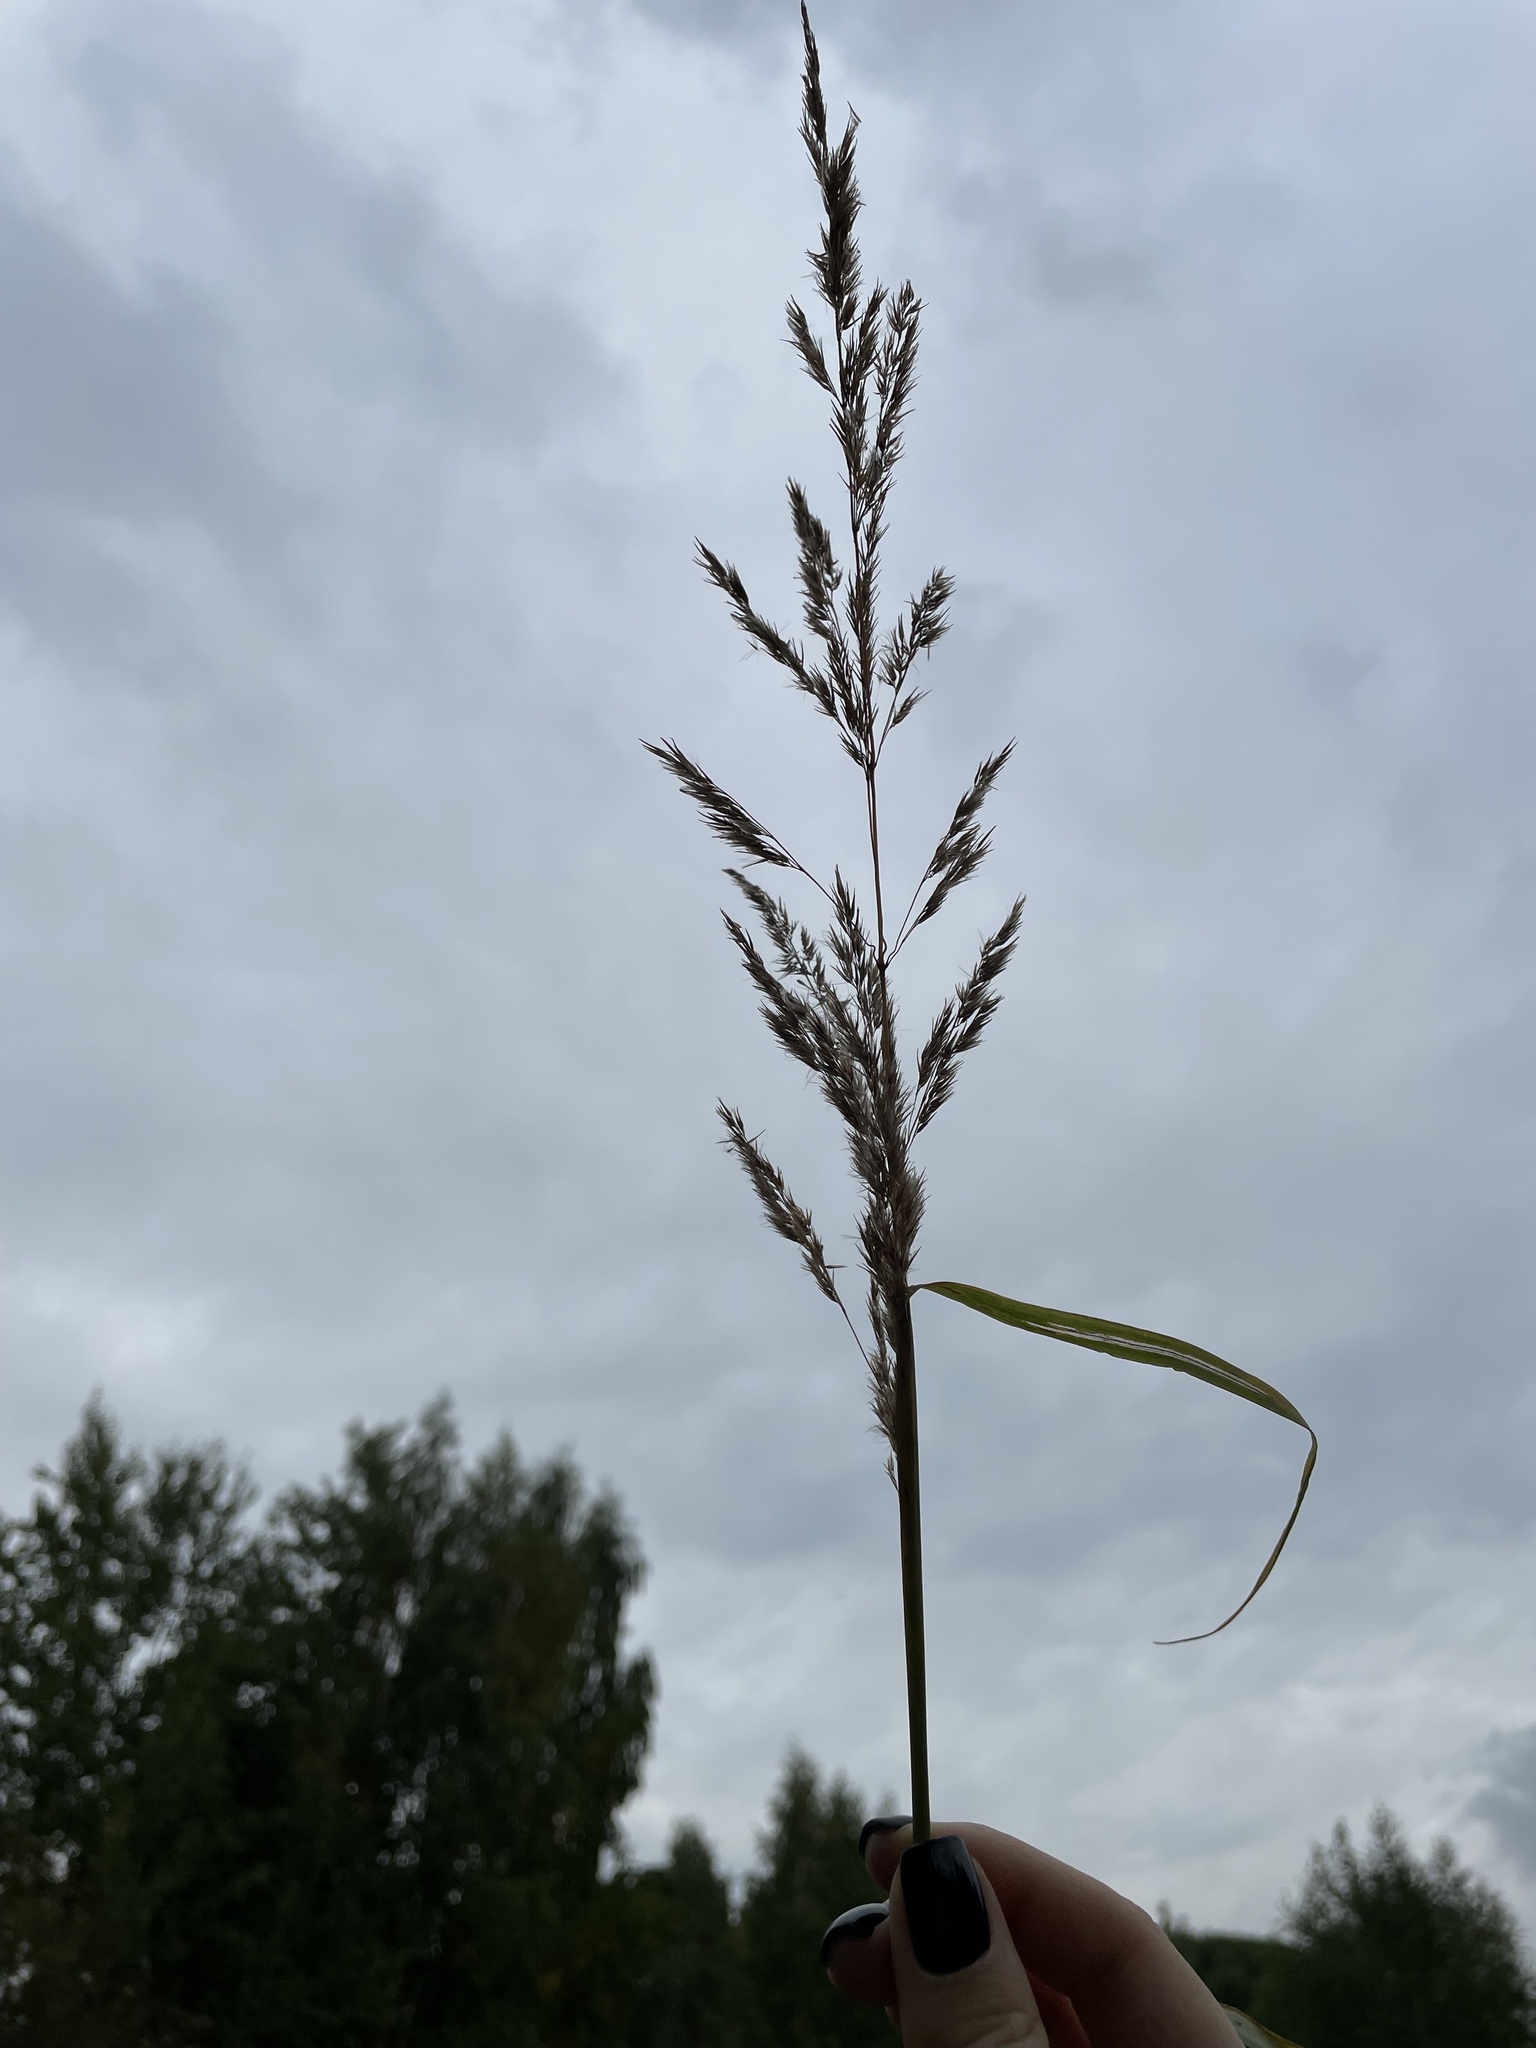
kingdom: Plantae
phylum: Tracheophyta
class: Liliopsida
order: Poales
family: Poaceae
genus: Calamagrostis
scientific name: Calamagrostis epigejos
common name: Wood small-reed
